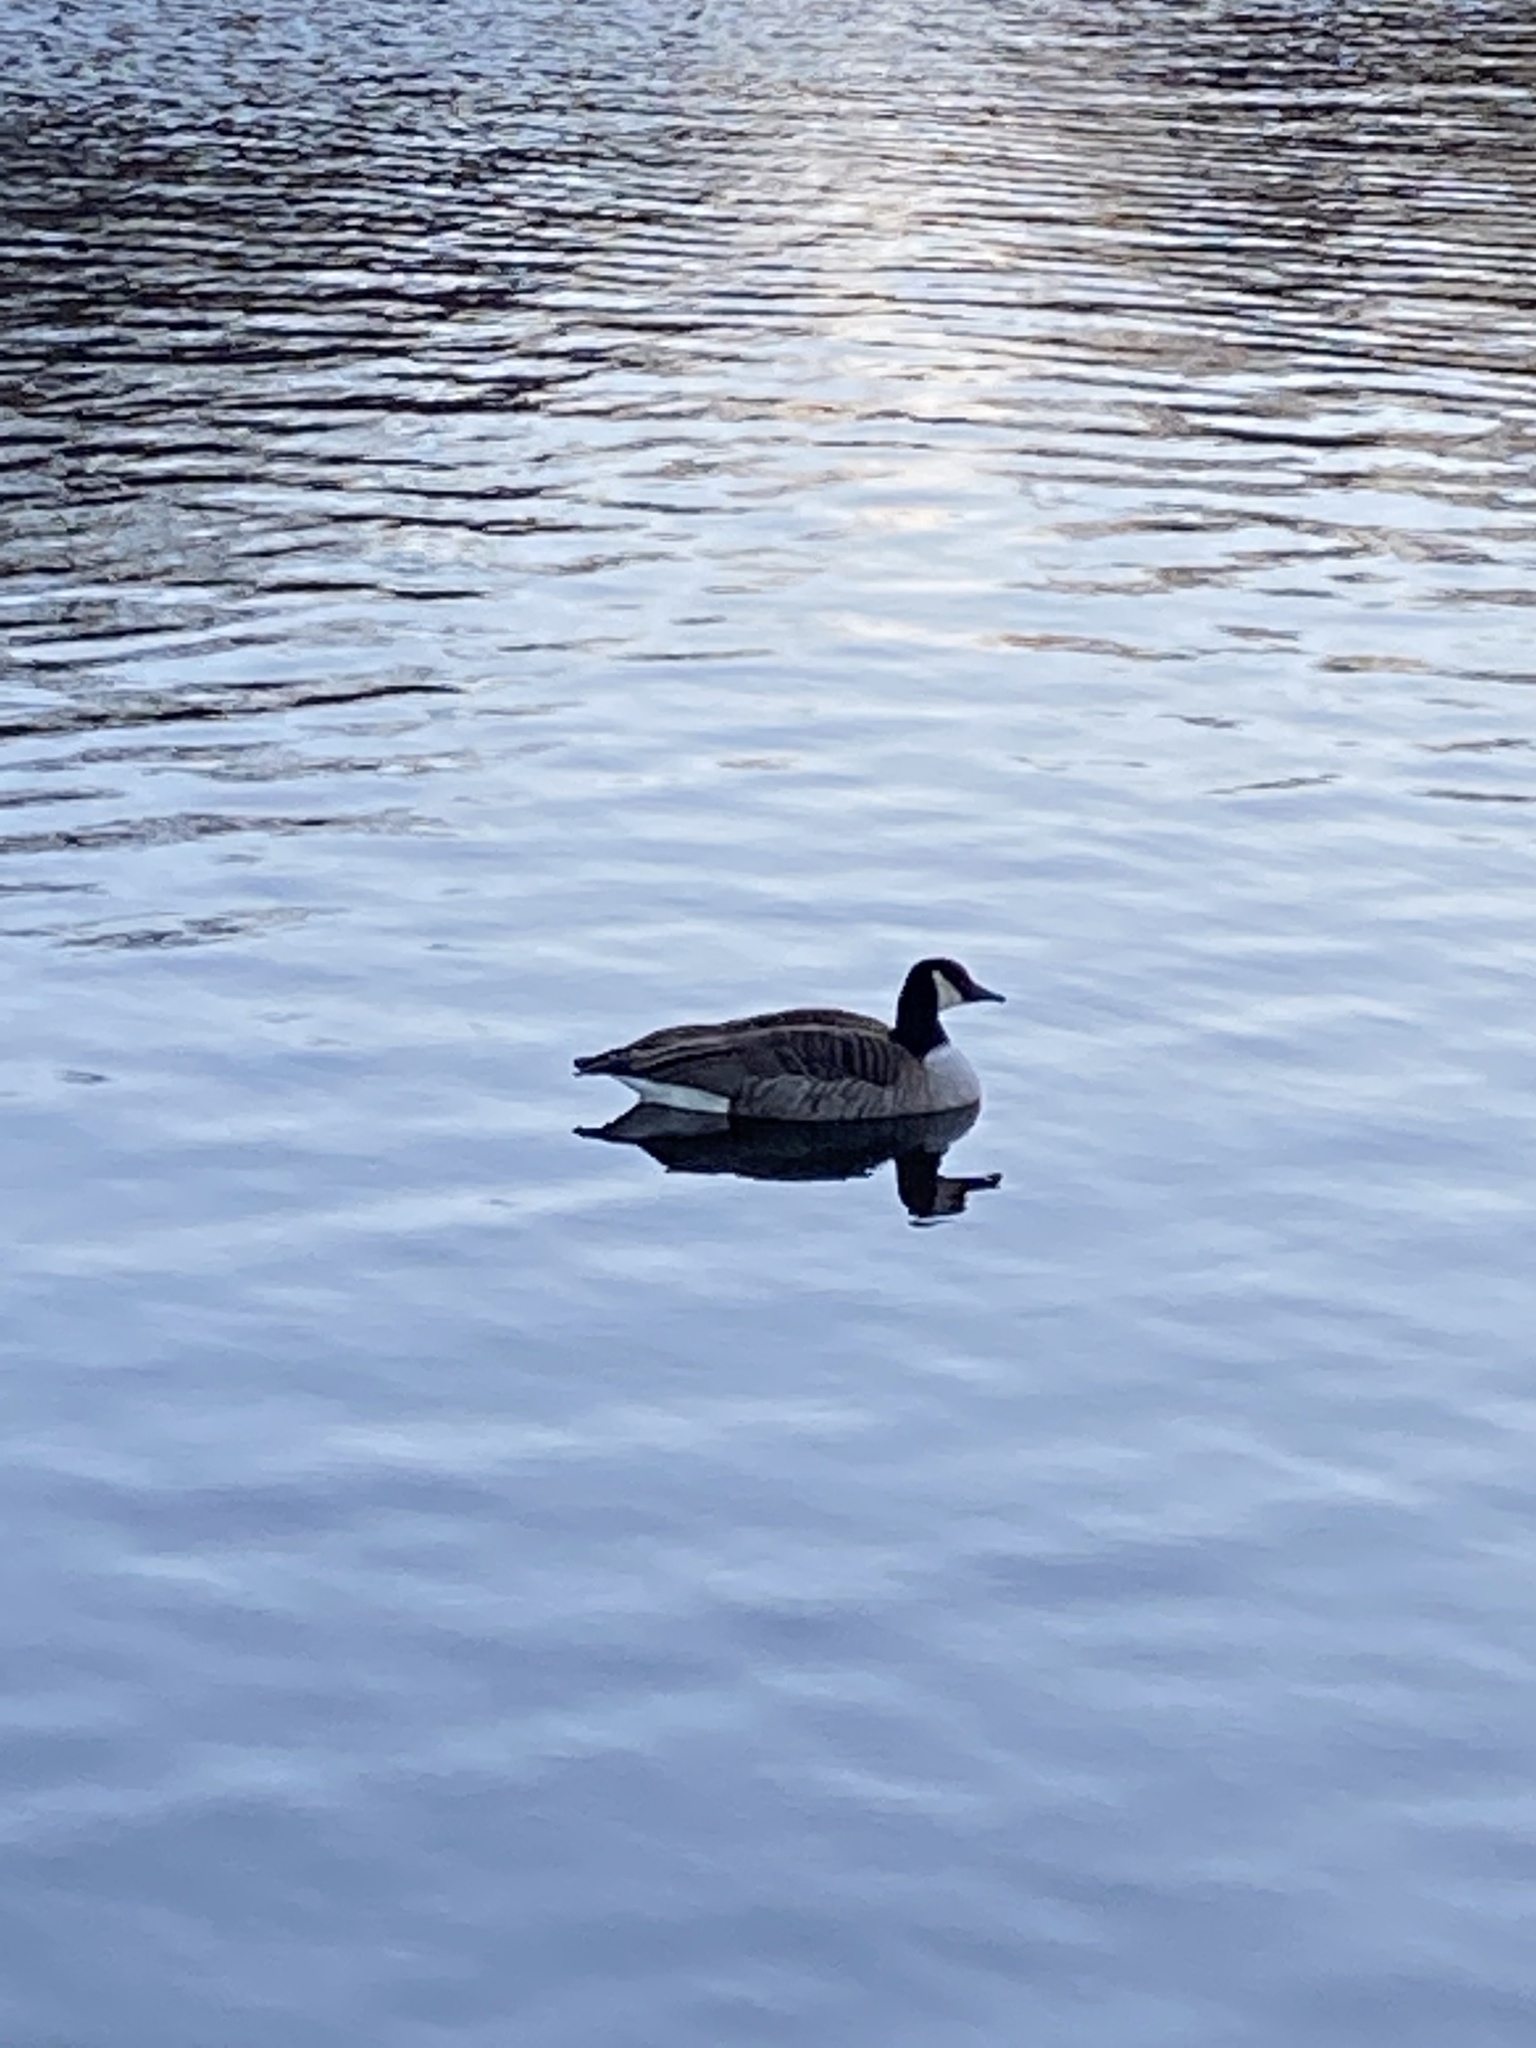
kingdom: Animalia
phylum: Chordata
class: Aves
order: Anseriformes
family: Anatidae
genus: Branta
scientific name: Branta canadensis
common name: Canada goose
